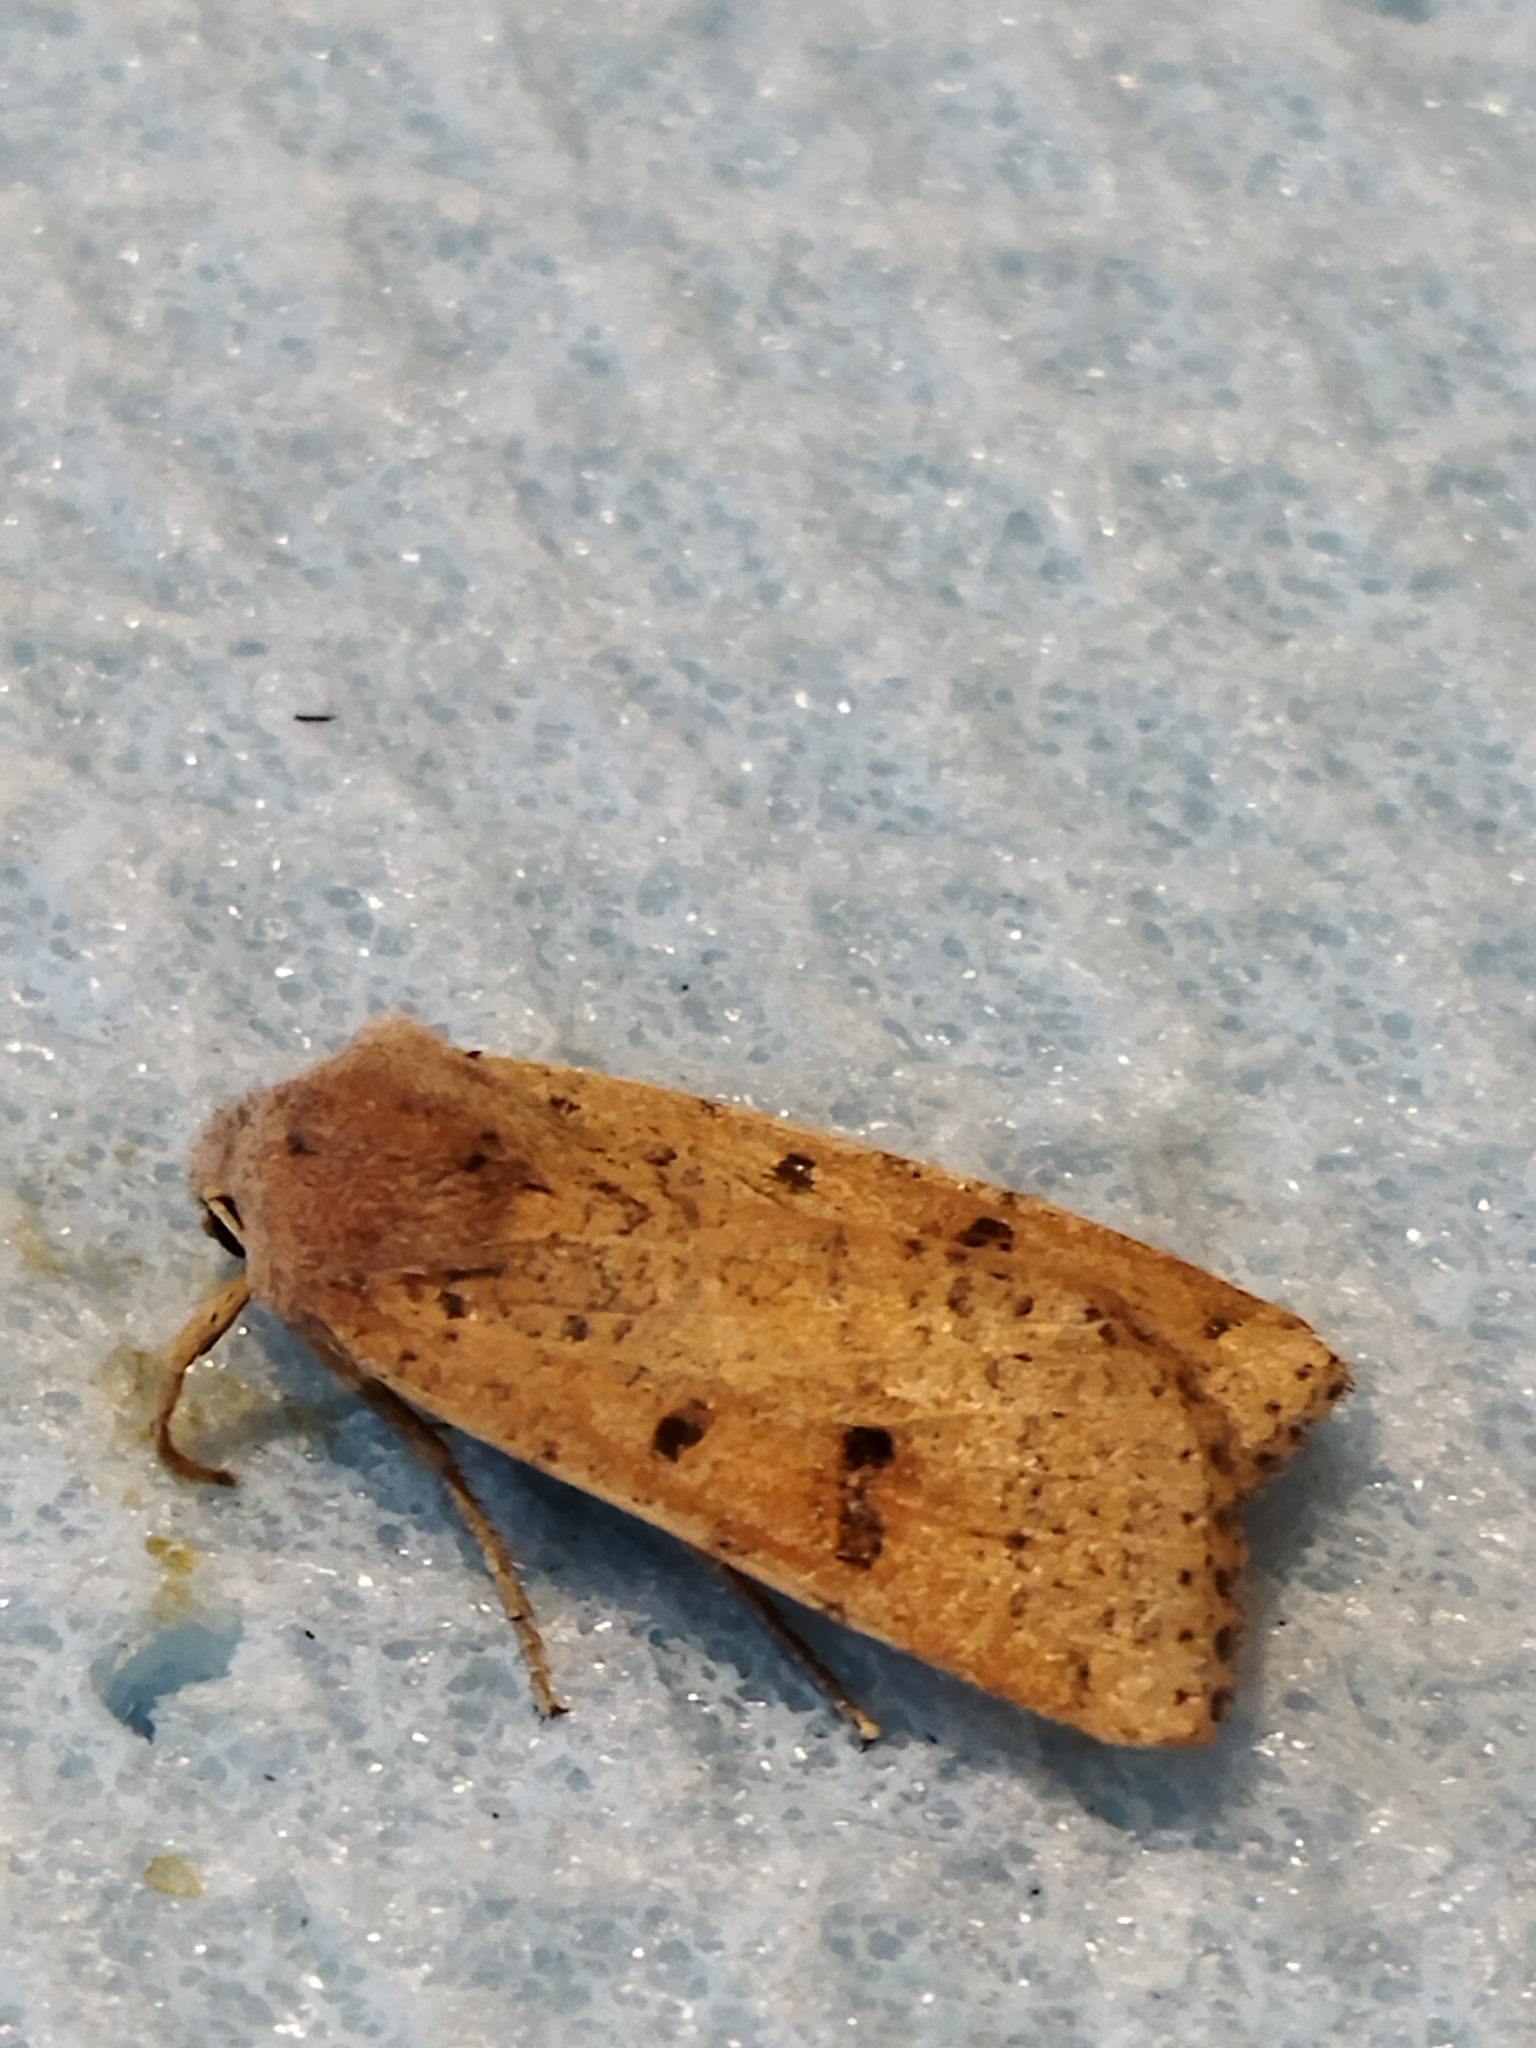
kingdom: Animalia
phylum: Arthropoda
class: Insecta
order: Lepidoptera
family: Noctuidae
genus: Agrochola
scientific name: Agrochola lychnidis
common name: Beaded chestnut
